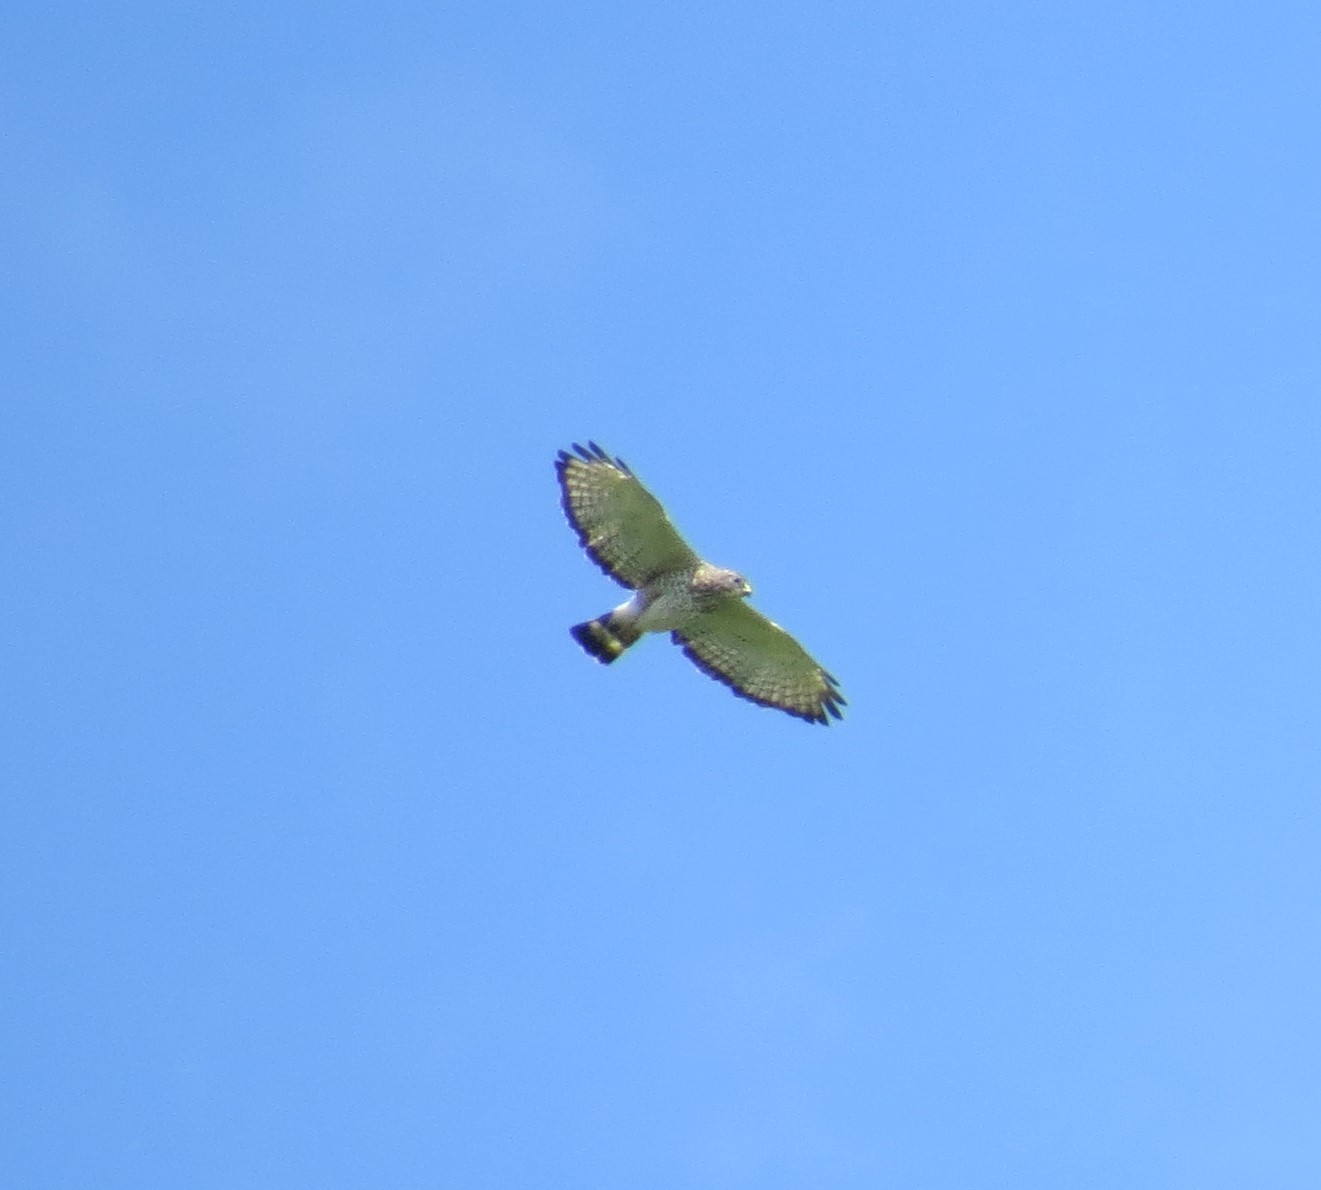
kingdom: Animalia
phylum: Chordata
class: Aves
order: Accipitriformes
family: Accipitridae
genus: Buteo
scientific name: Buteo platypterus
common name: Broad-winged hawk
